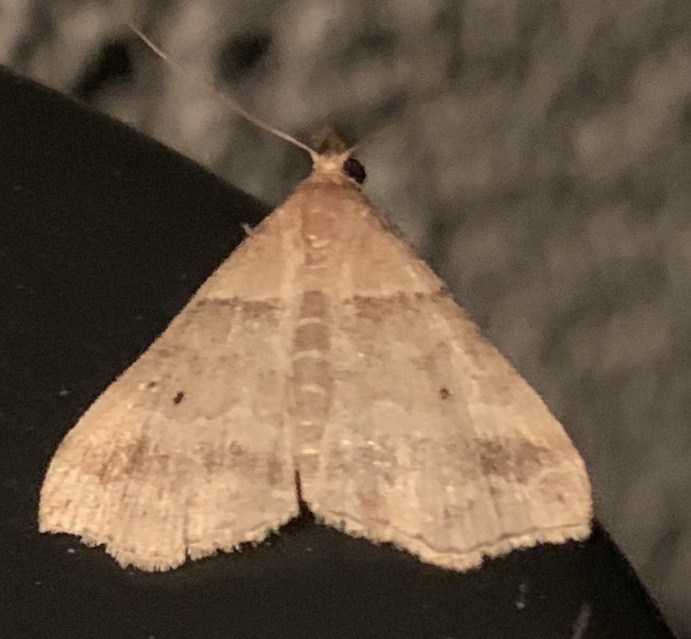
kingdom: Animalia
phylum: Arthropoda
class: Insecta
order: Lepidoptera
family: Erebidae
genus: Phaeolita
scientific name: Phaeolita pyramusalis
